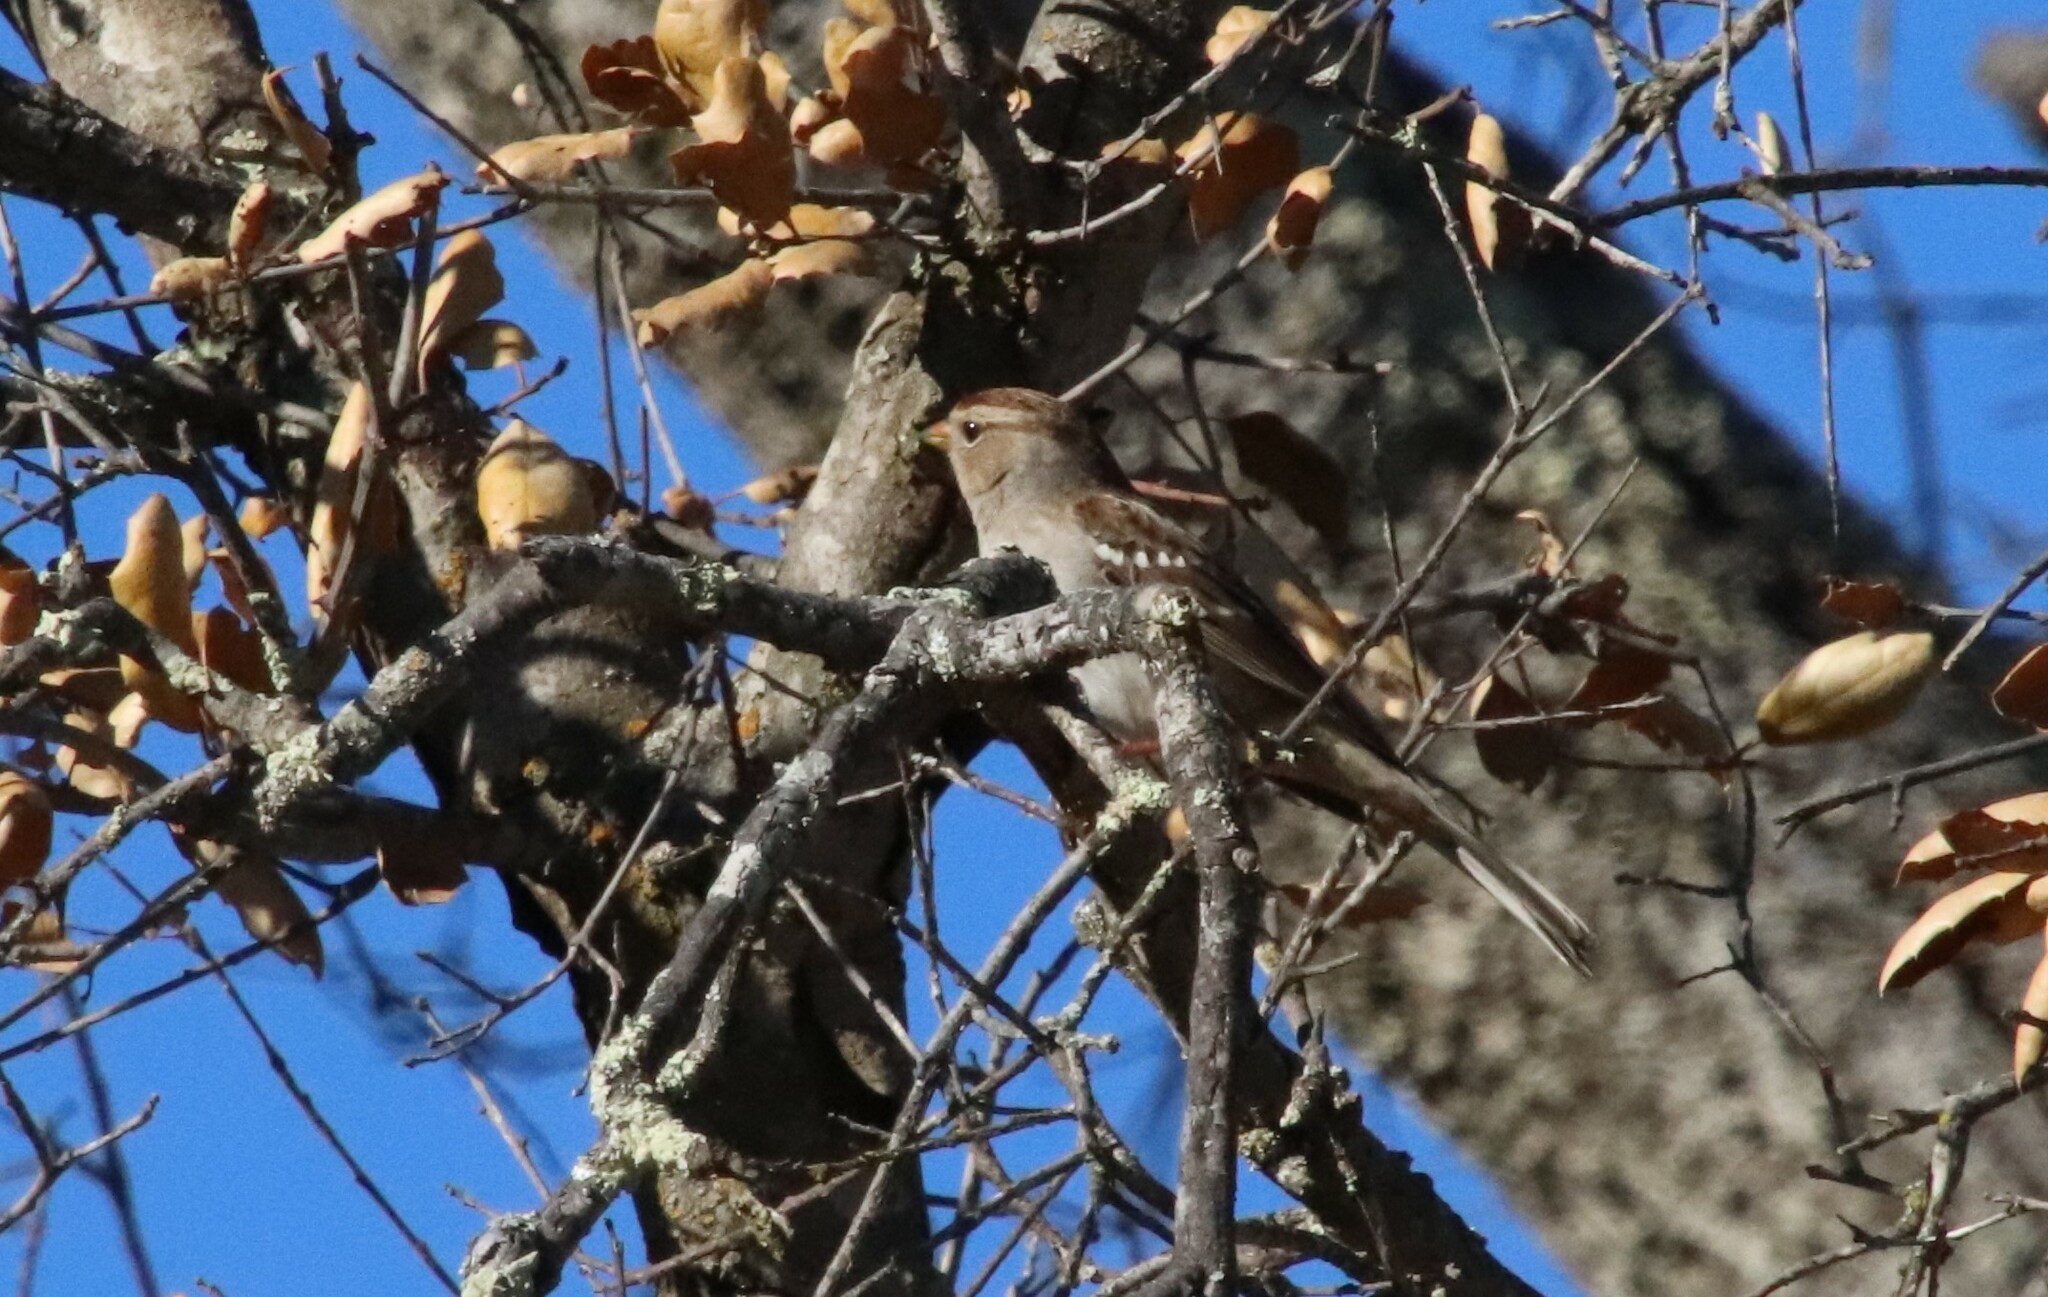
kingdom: Animalia
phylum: Chordata
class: Aves
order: Passeriformes
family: Passerellidae
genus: Zonotrichia
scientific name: Zonotrichia leucophrys
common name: White-crowned sparrow
